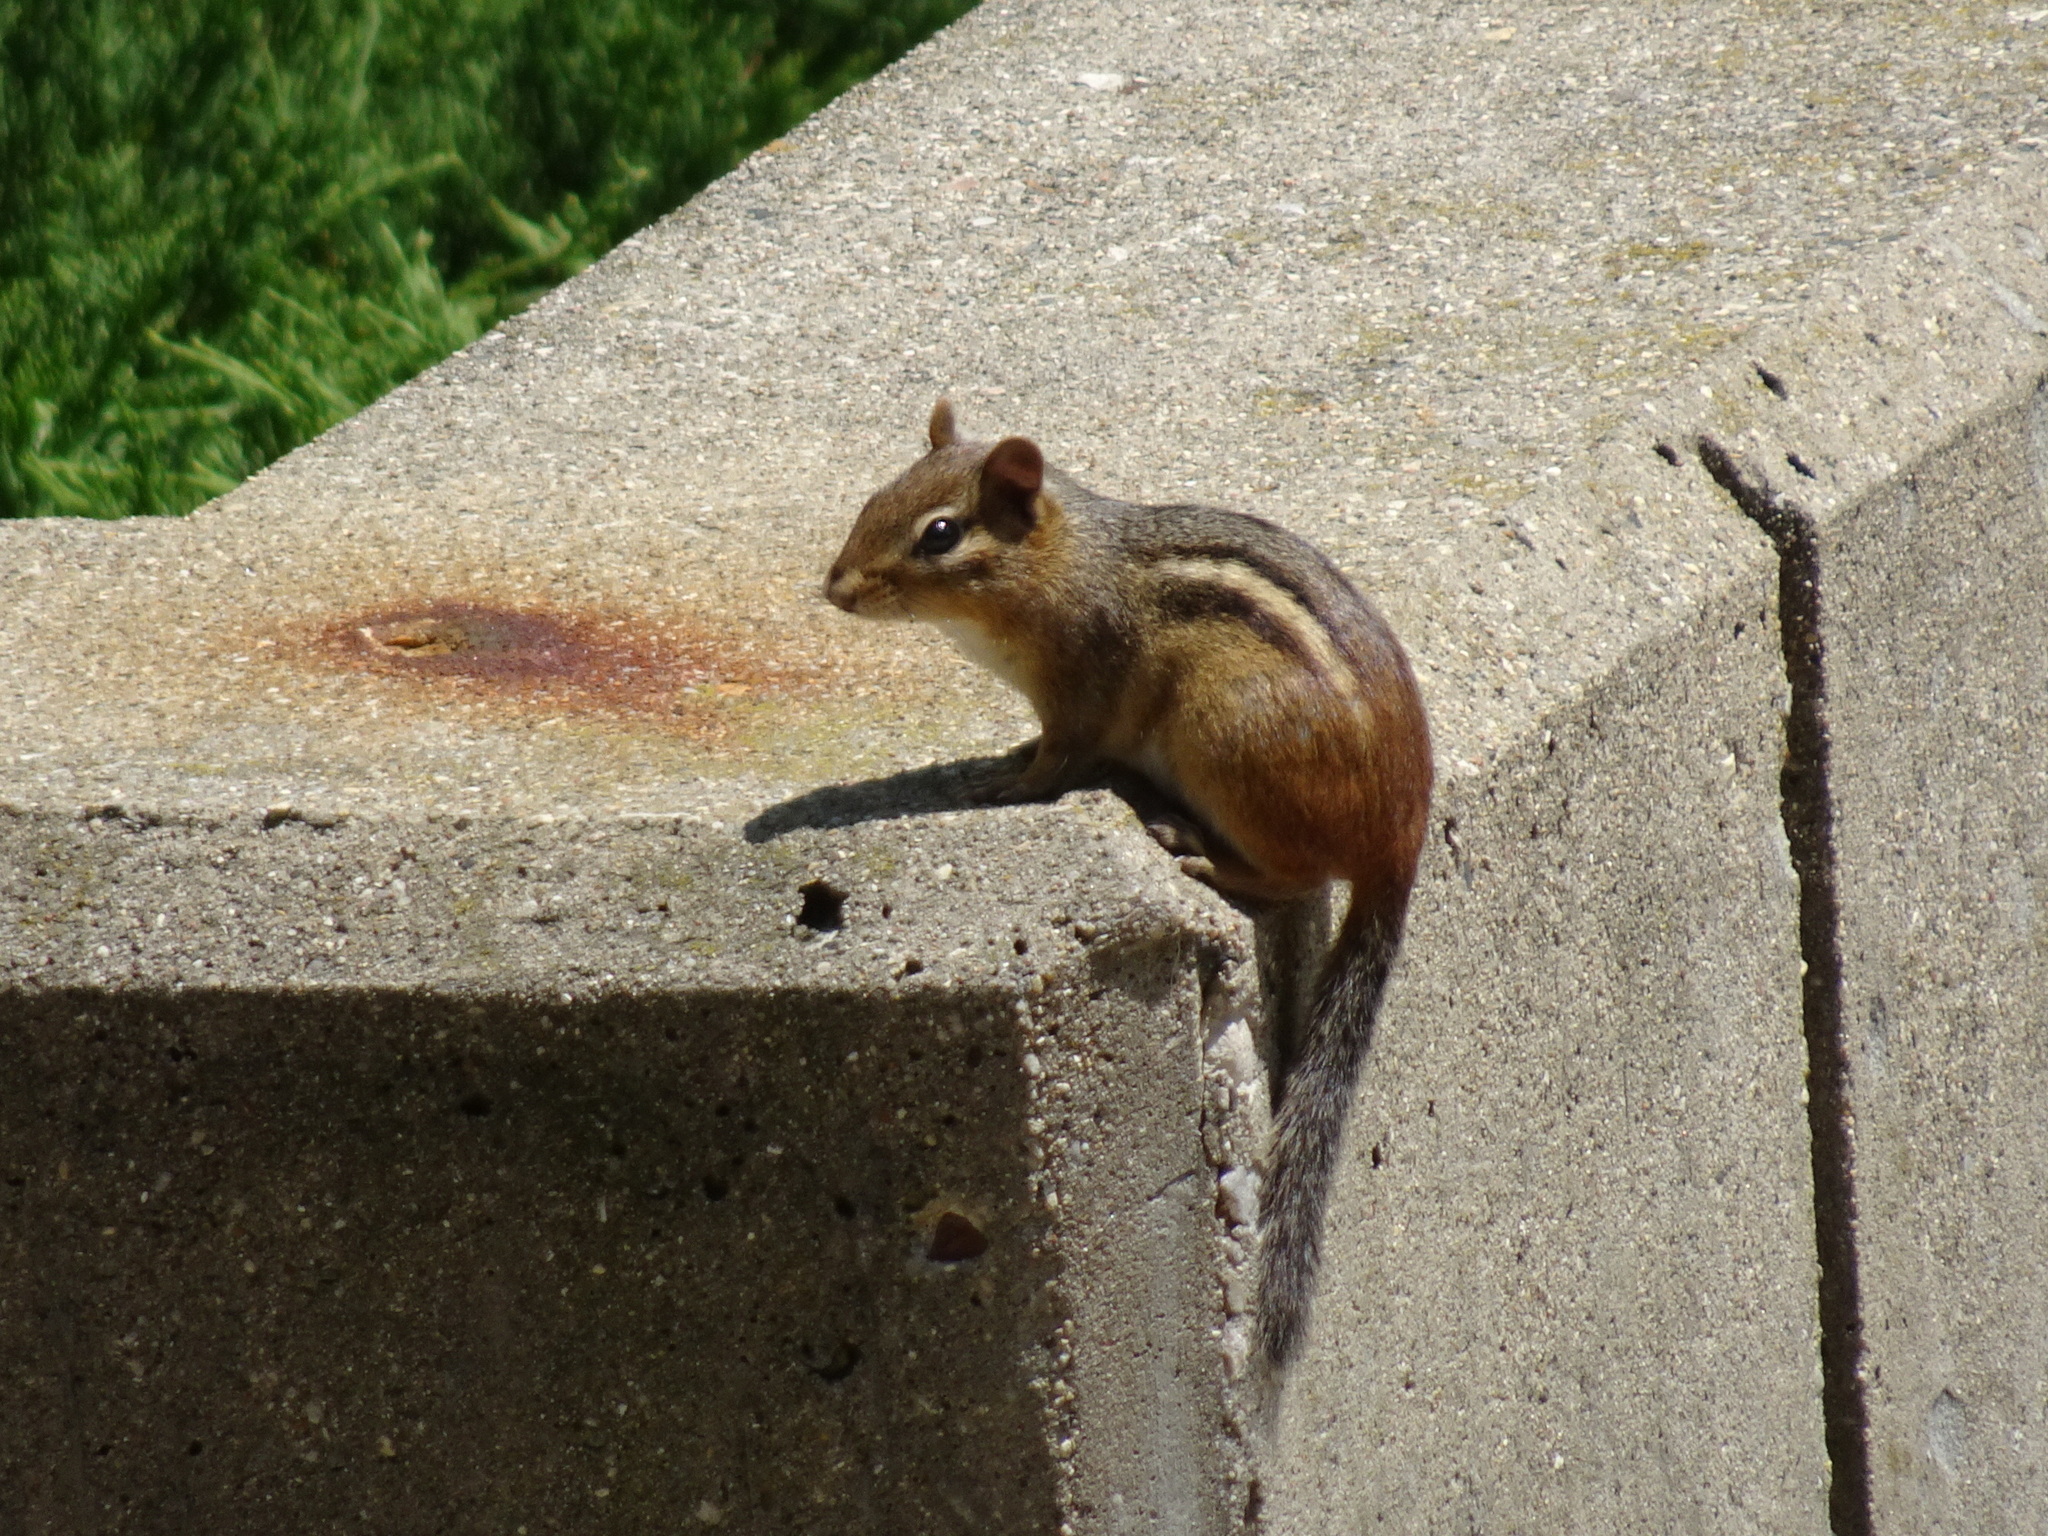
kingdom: Animalia
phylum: Chordata
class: Mammalia
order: Rodentia
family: Sciuridae
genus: Tamias
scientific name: Tamias striatus
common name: Eastern chipmunk
